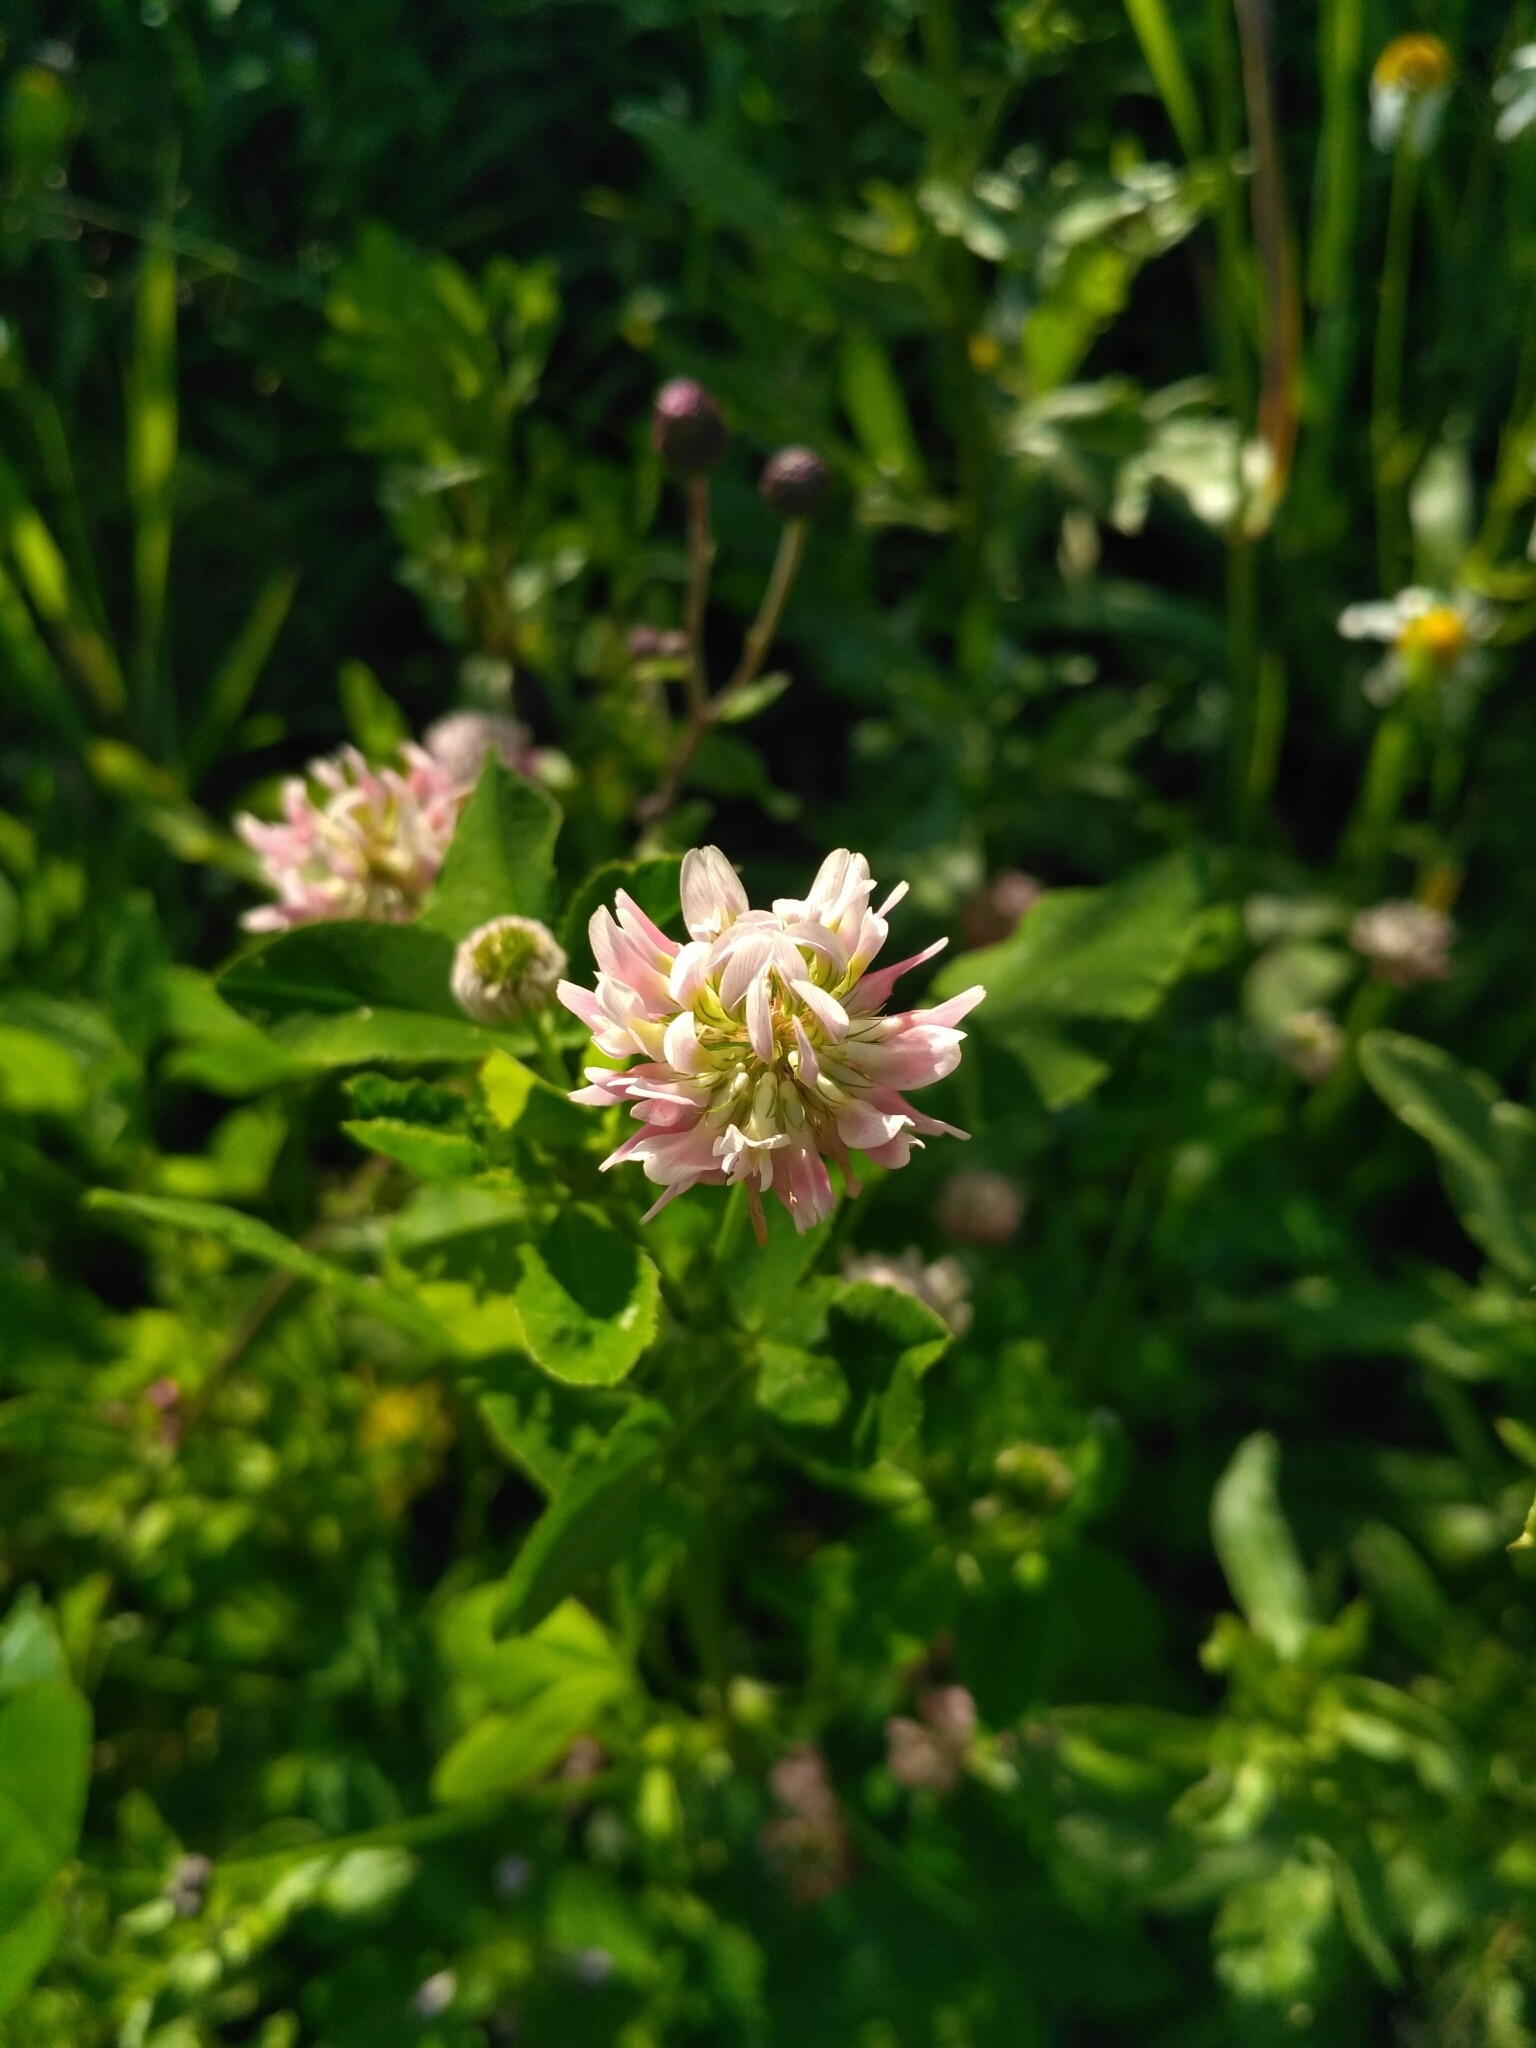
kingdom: Plantae
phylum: Tracheophyta
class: Magnoliopsida
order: Fabales
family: Fabaceae
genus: Trifolium
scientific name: Trifolium hybridum
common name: Alsike clover
